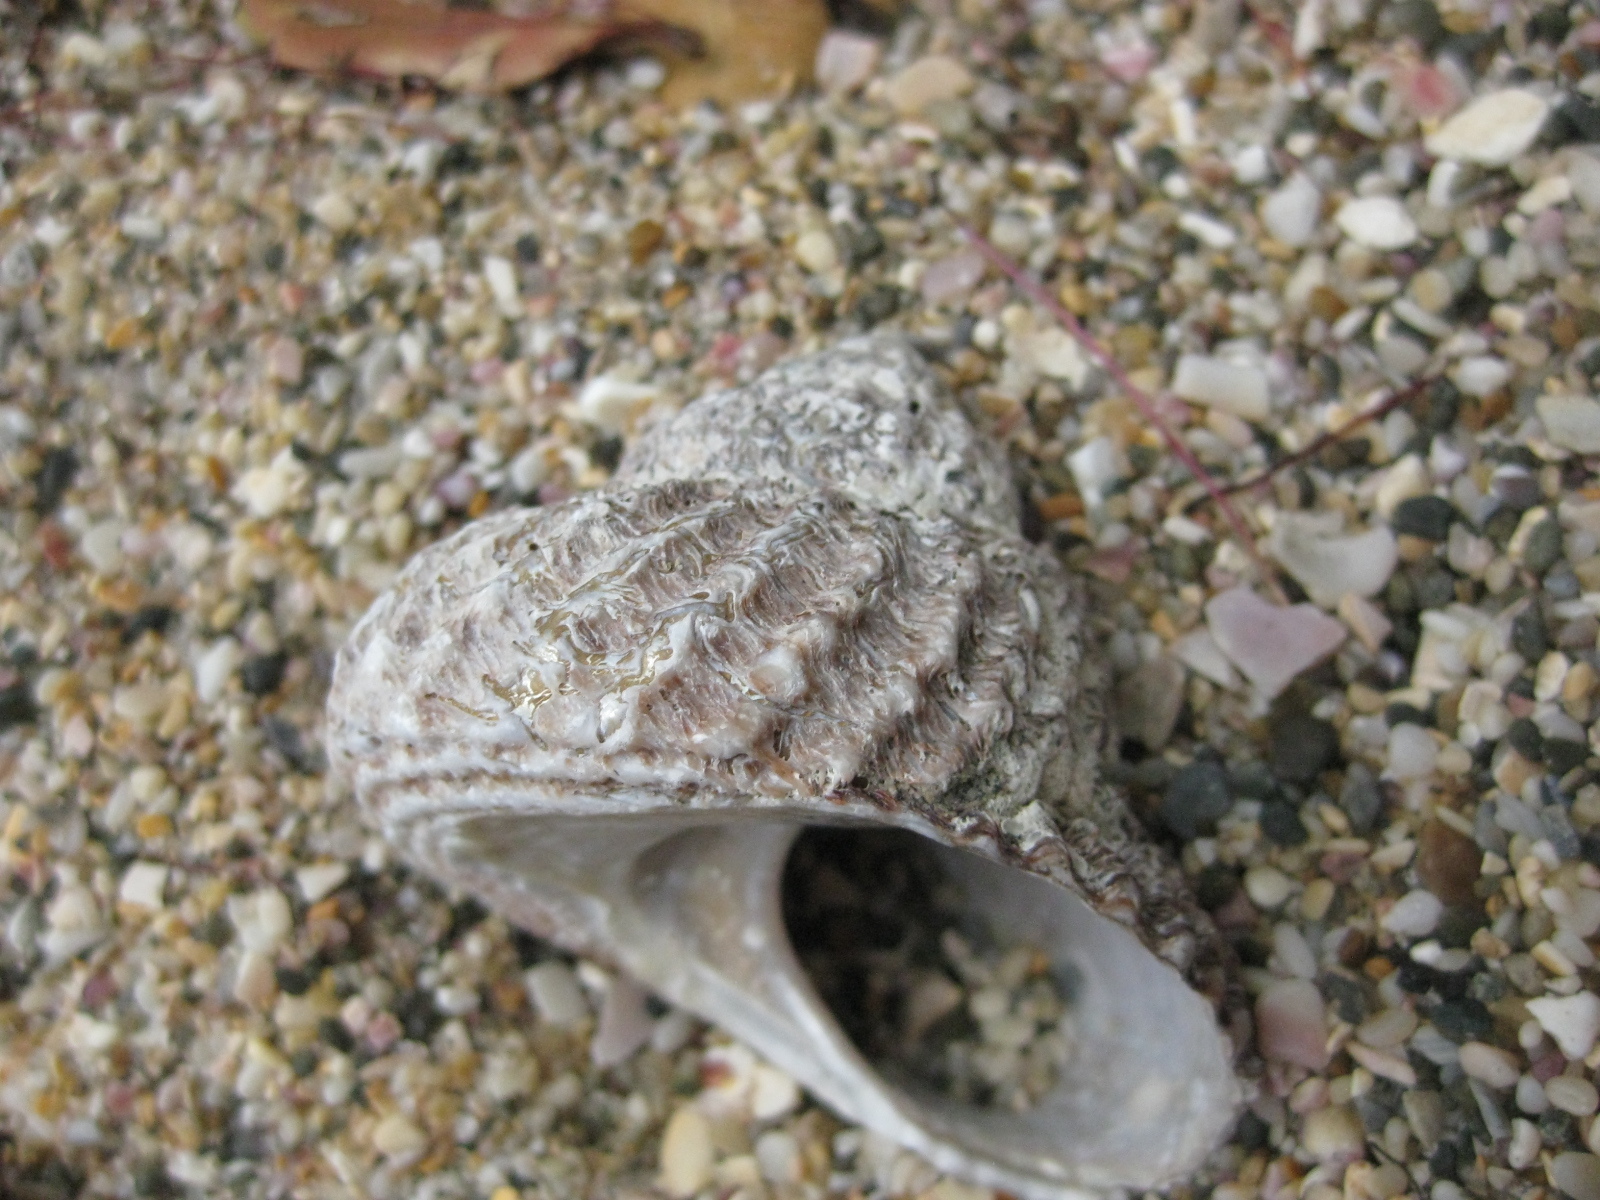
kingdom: Animalia
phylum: Mollusca
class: Gastropoda
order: Trochida
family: Turbinidae
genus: Cookia
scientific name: Cookia sulcata
